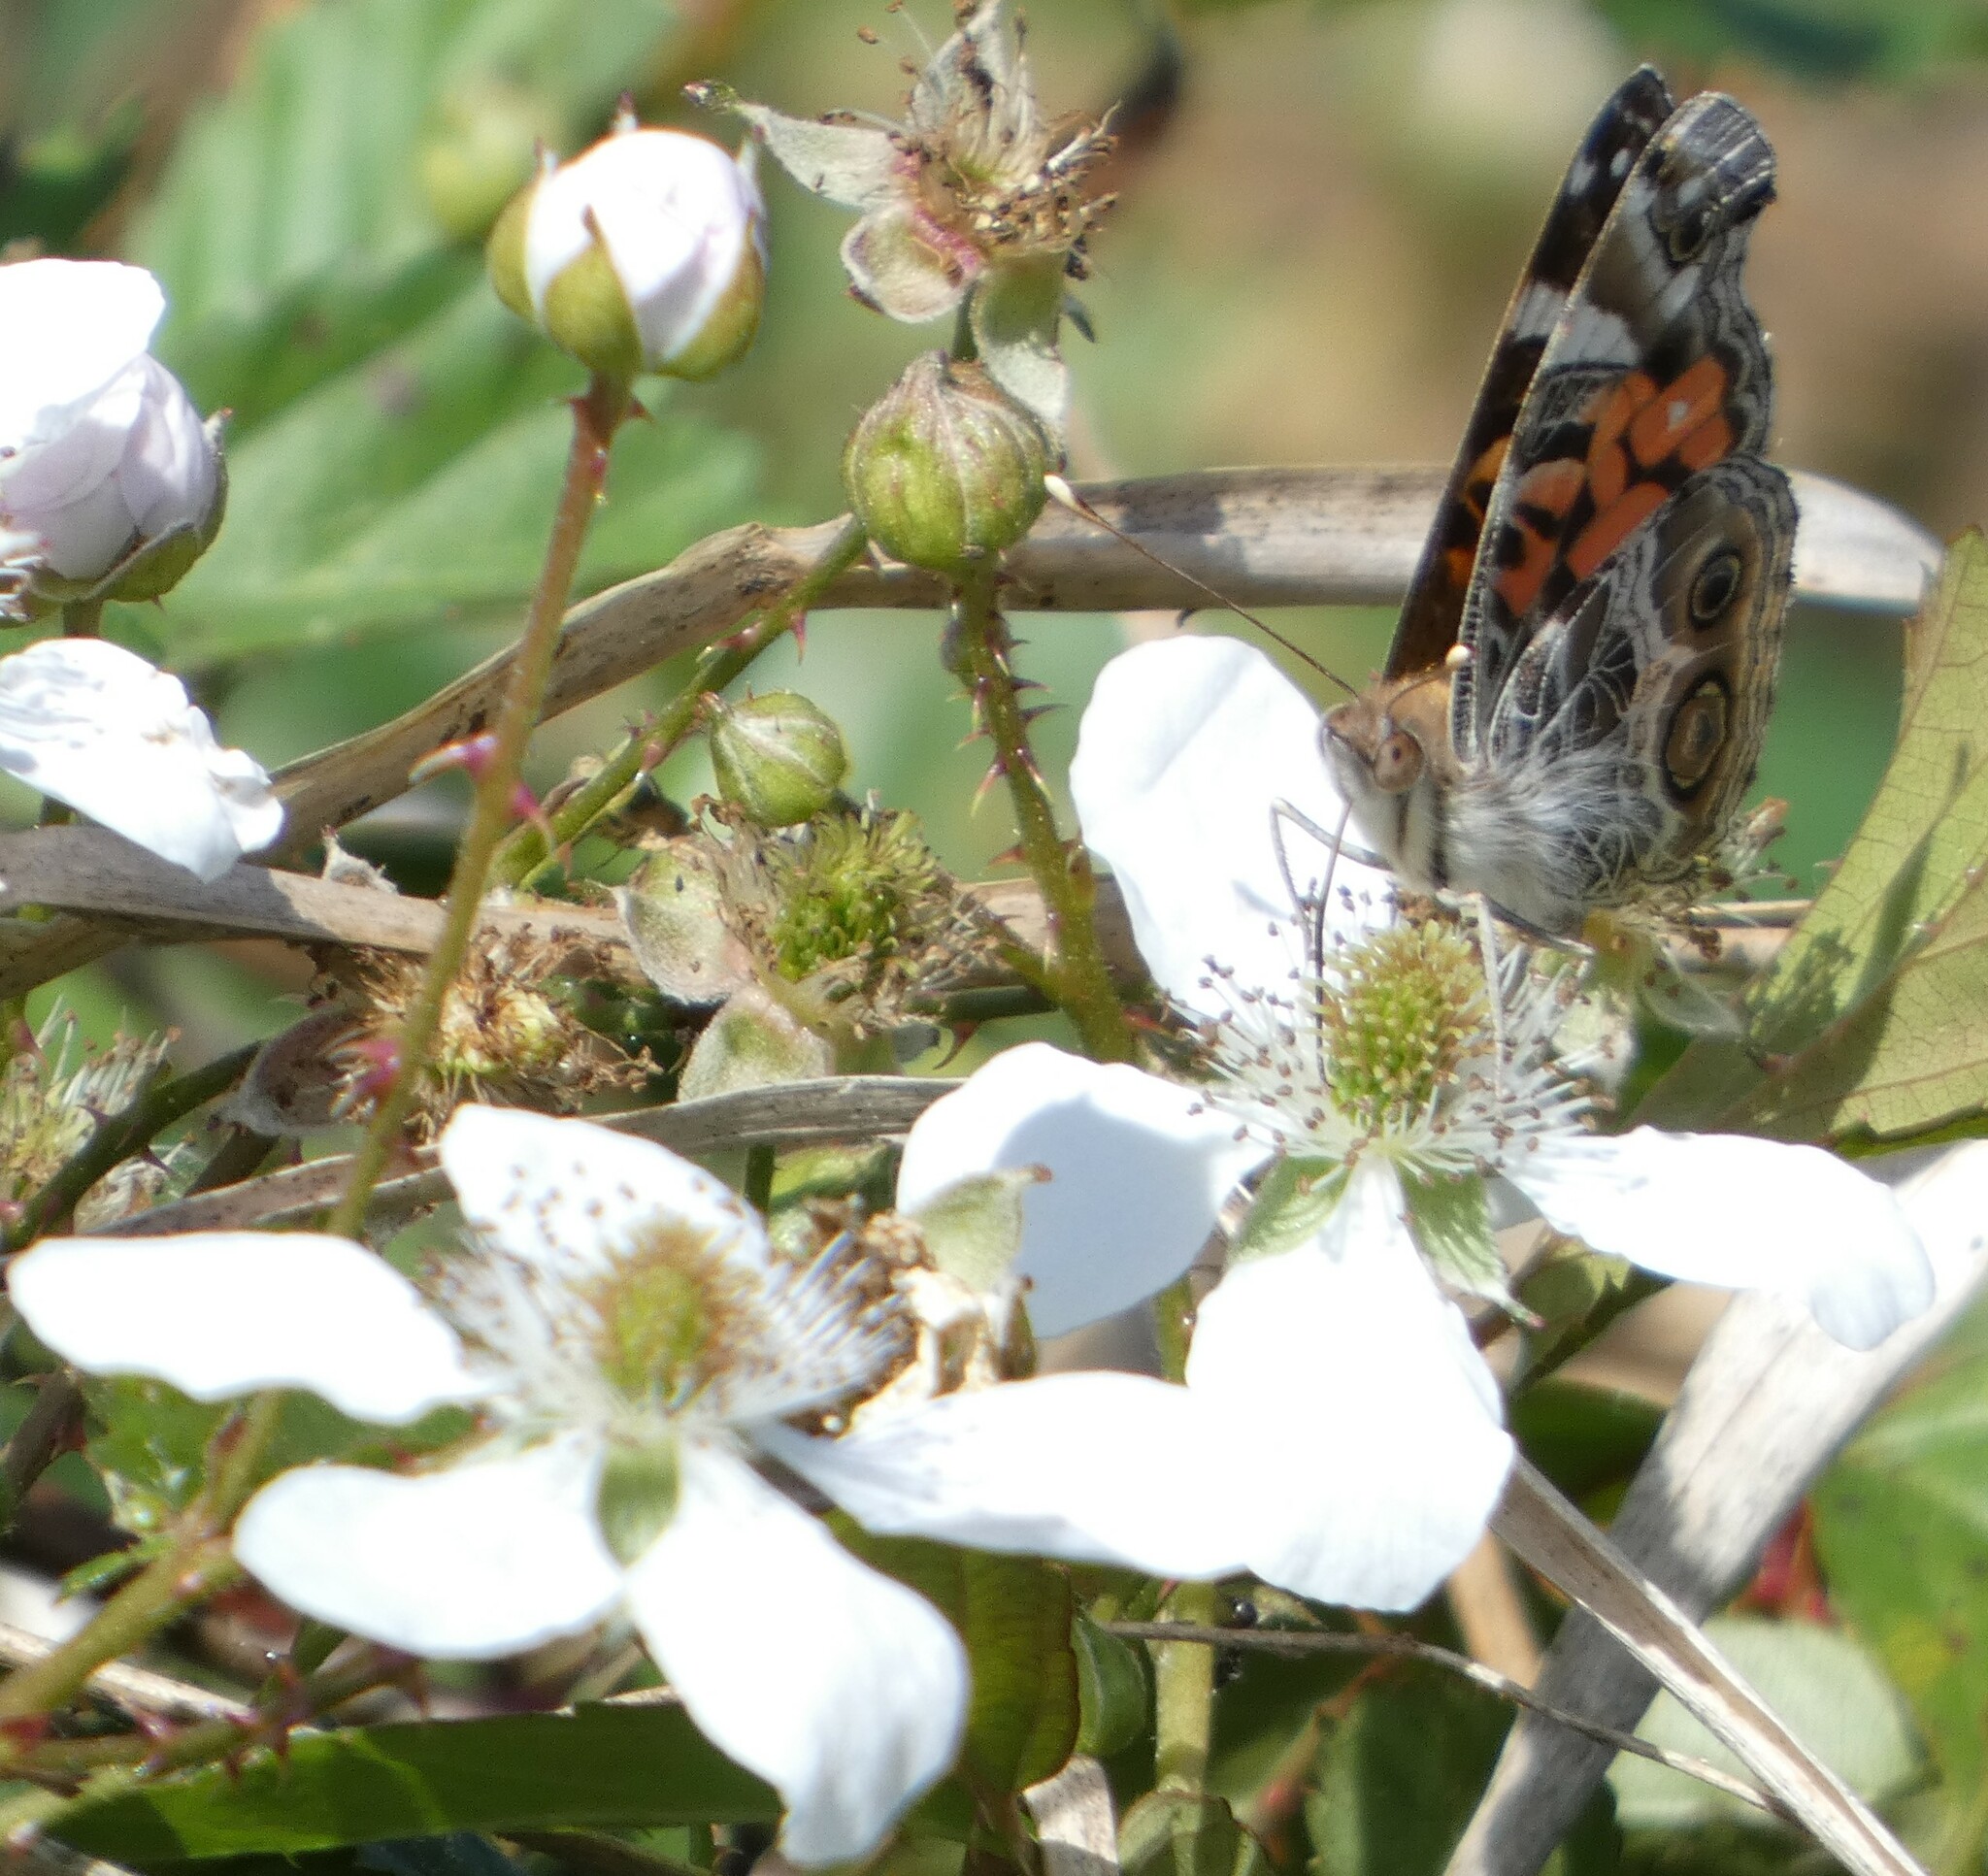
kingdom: Animalia
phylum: Arthropoda
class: Insecta
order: Lepidoptera
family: Nymphalidae
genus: Vanessa
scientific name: Vanessa virginiensis
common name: American lady
